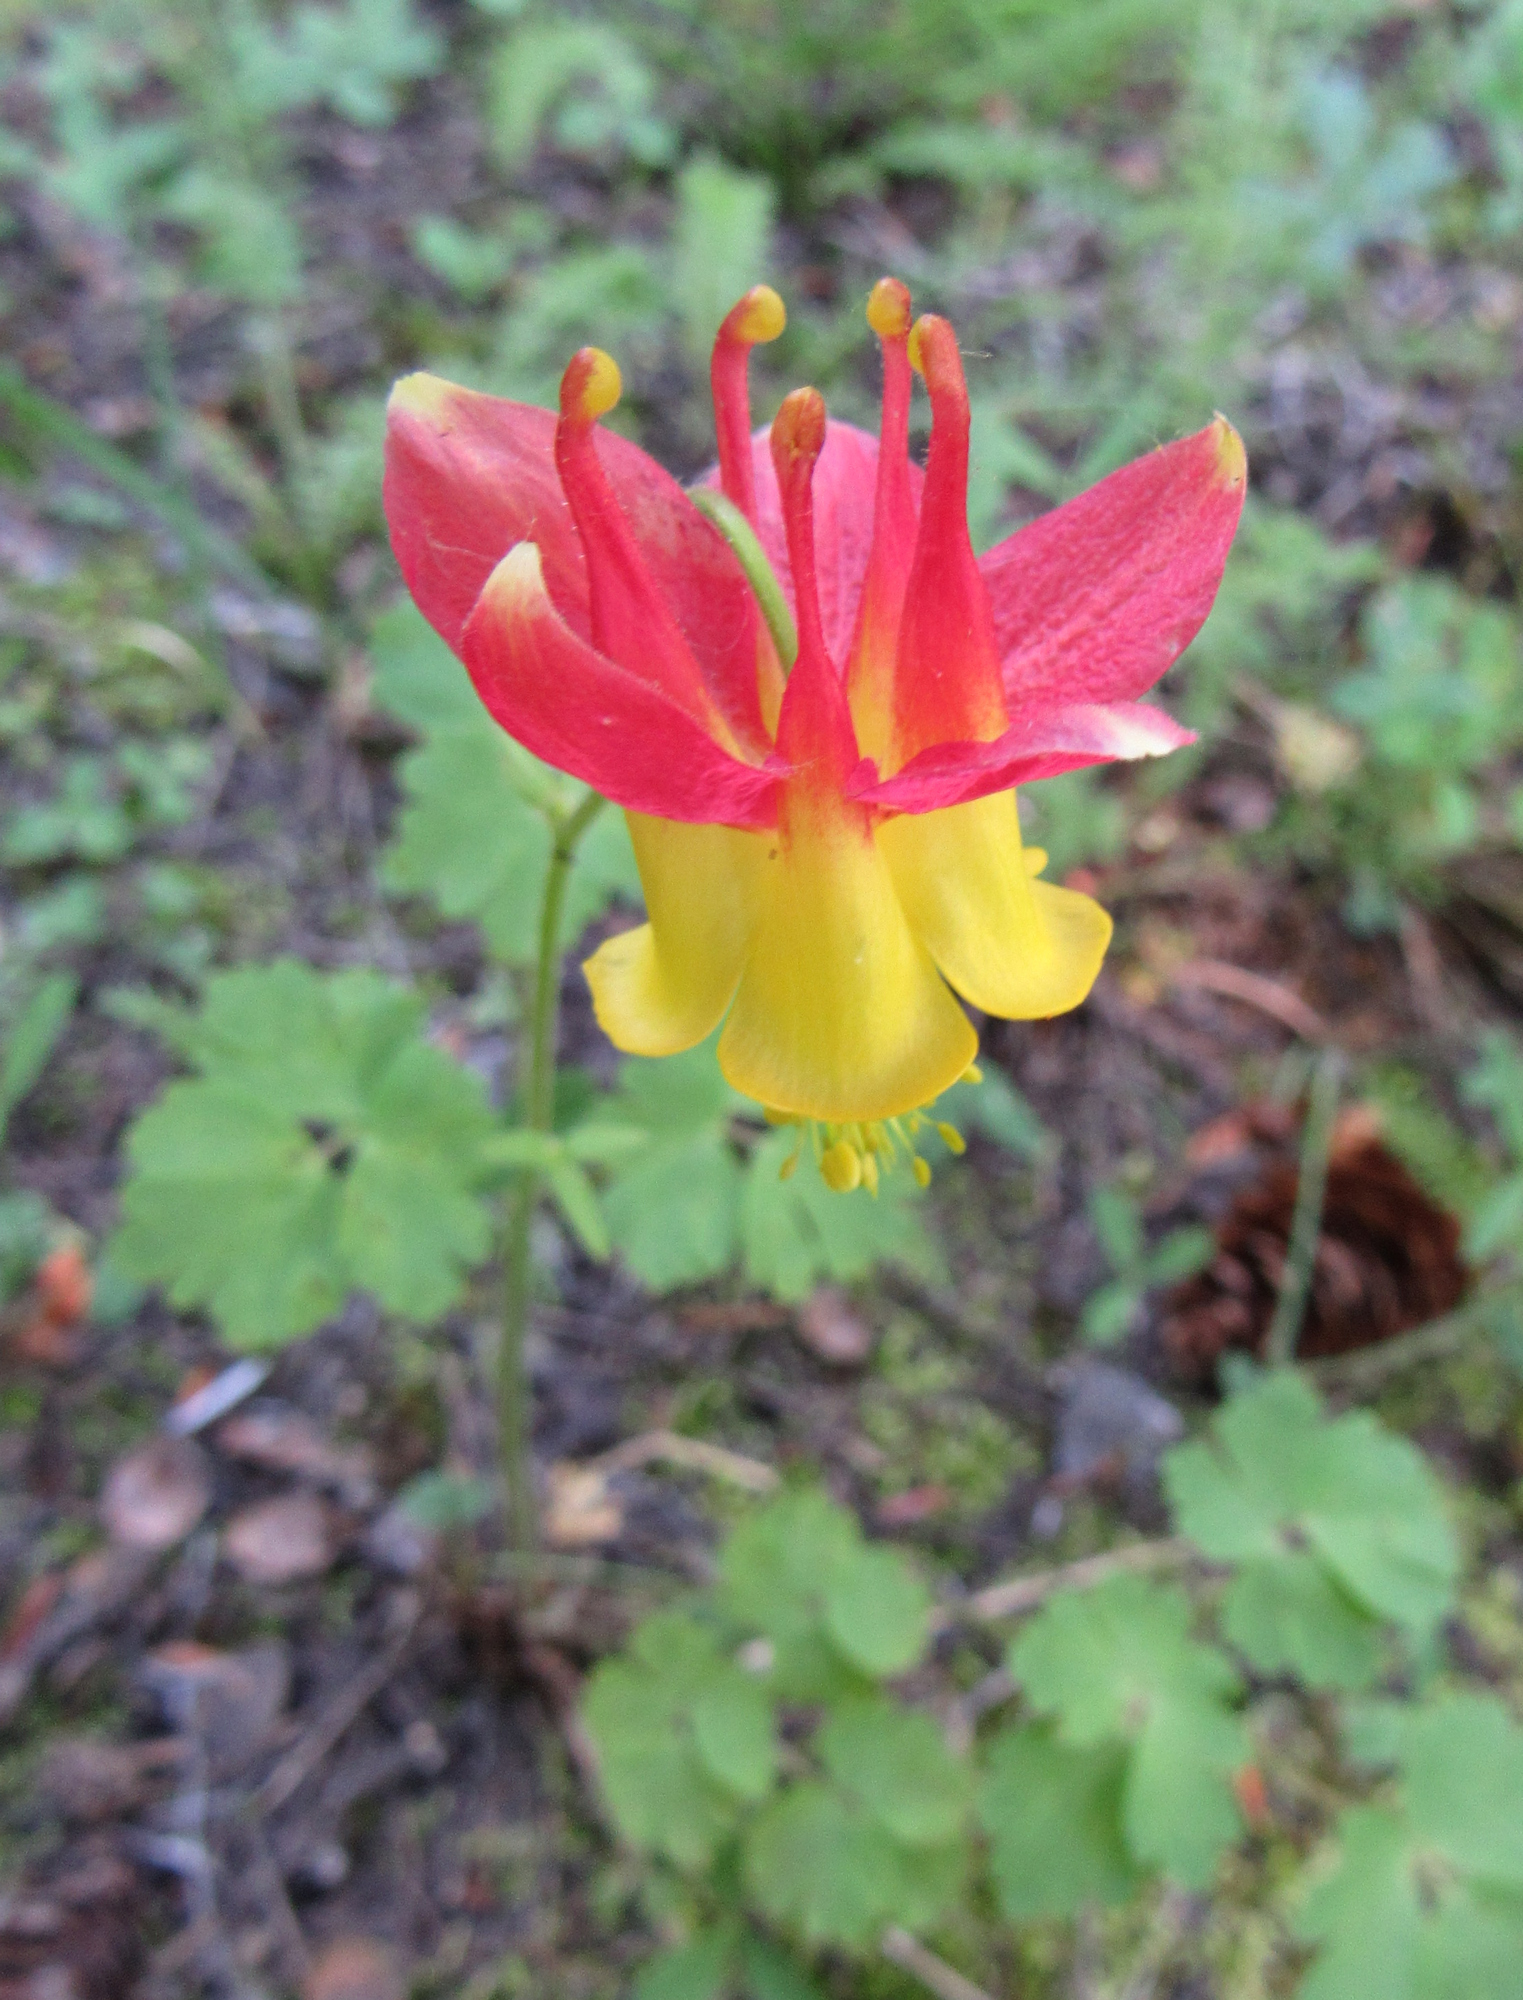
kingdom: Plantae
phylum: Tracheophyta
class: Magnoliopsida
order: Ranunculales
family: Ranunculaceae
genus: Aquilegia
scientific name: Aquilegia formosa
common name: Sitka columbine
